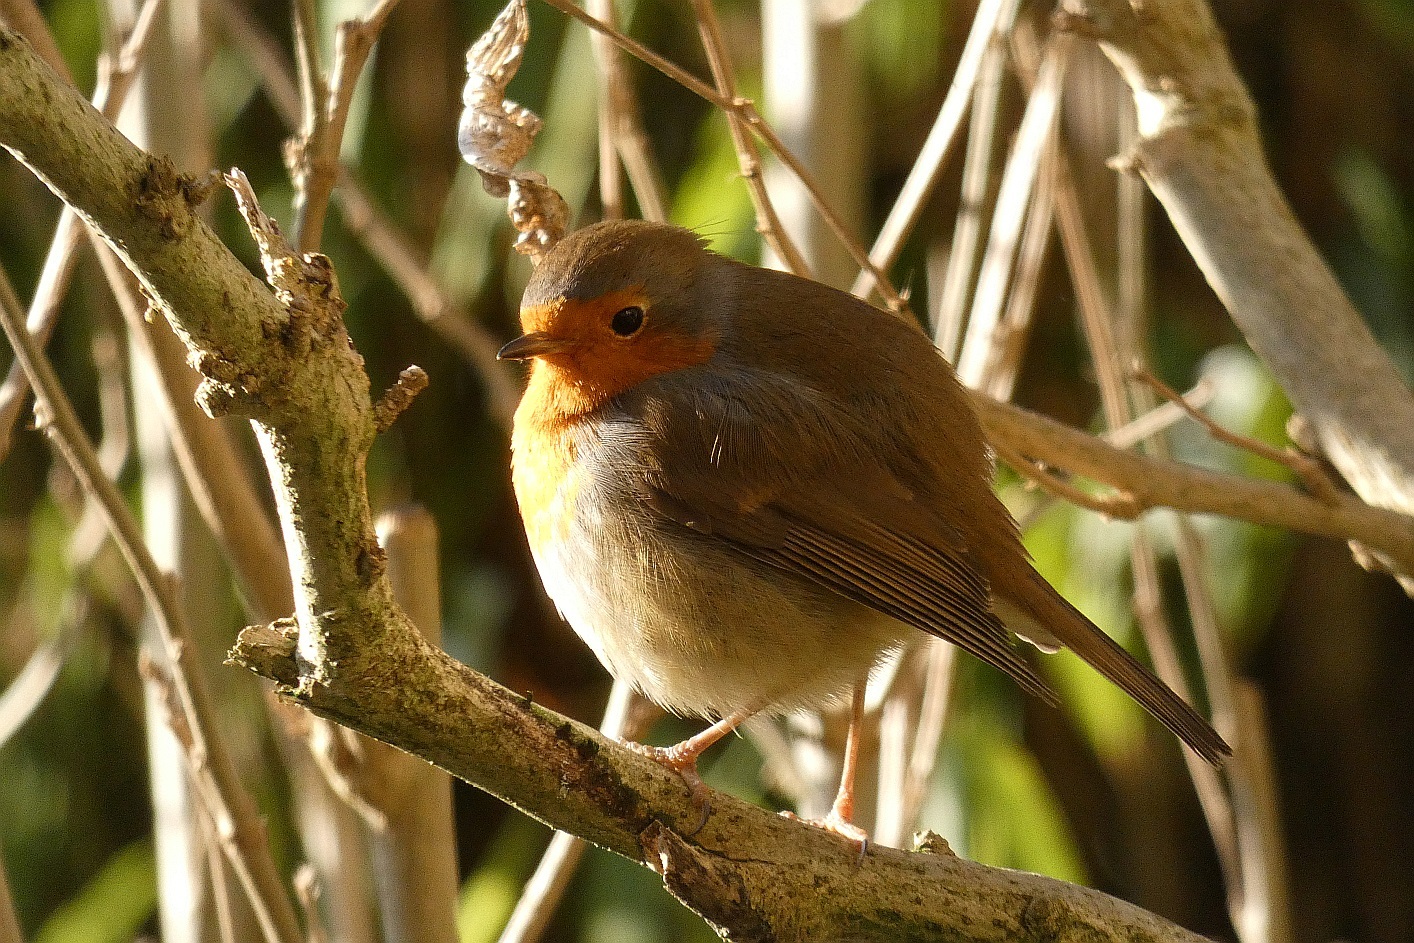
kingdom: Animalia
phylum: Chordata
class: Aves
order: Passeriformes
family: Muscicapidae
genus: Erithacus
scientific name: Erithacus rubecula
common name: European robin
